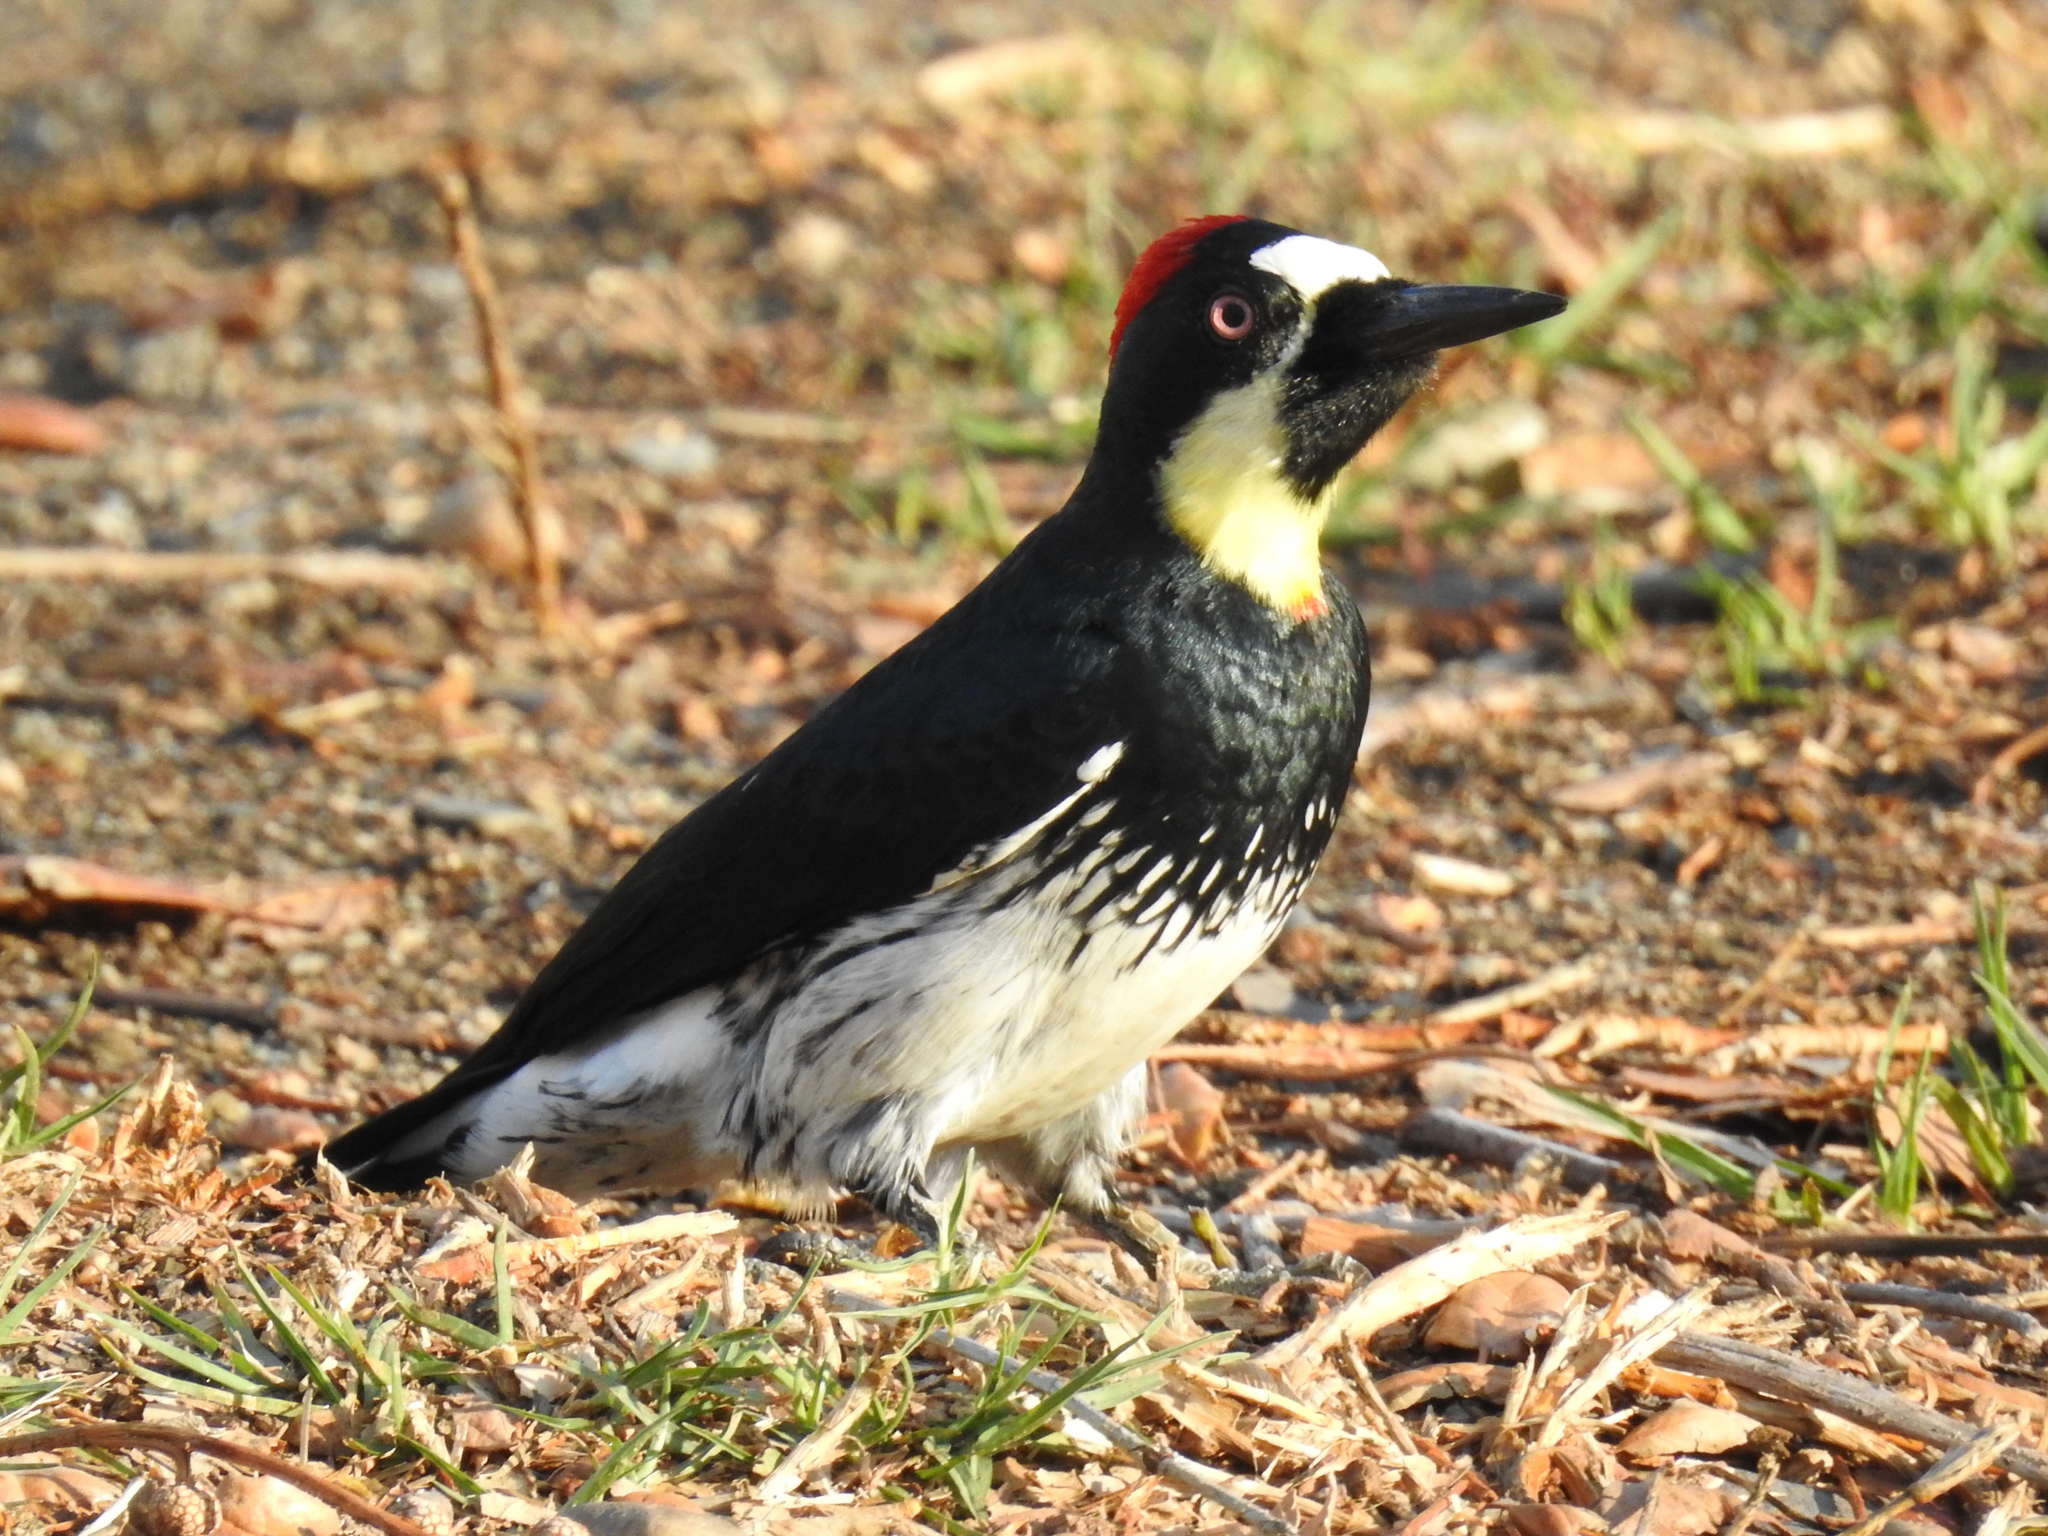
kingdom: Animalia
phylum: Chordata
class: Aves
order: Piciformes
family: Picidae
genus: Melanerpes
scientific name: Melanerpes formicivorus
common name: Acorn woodpecker
